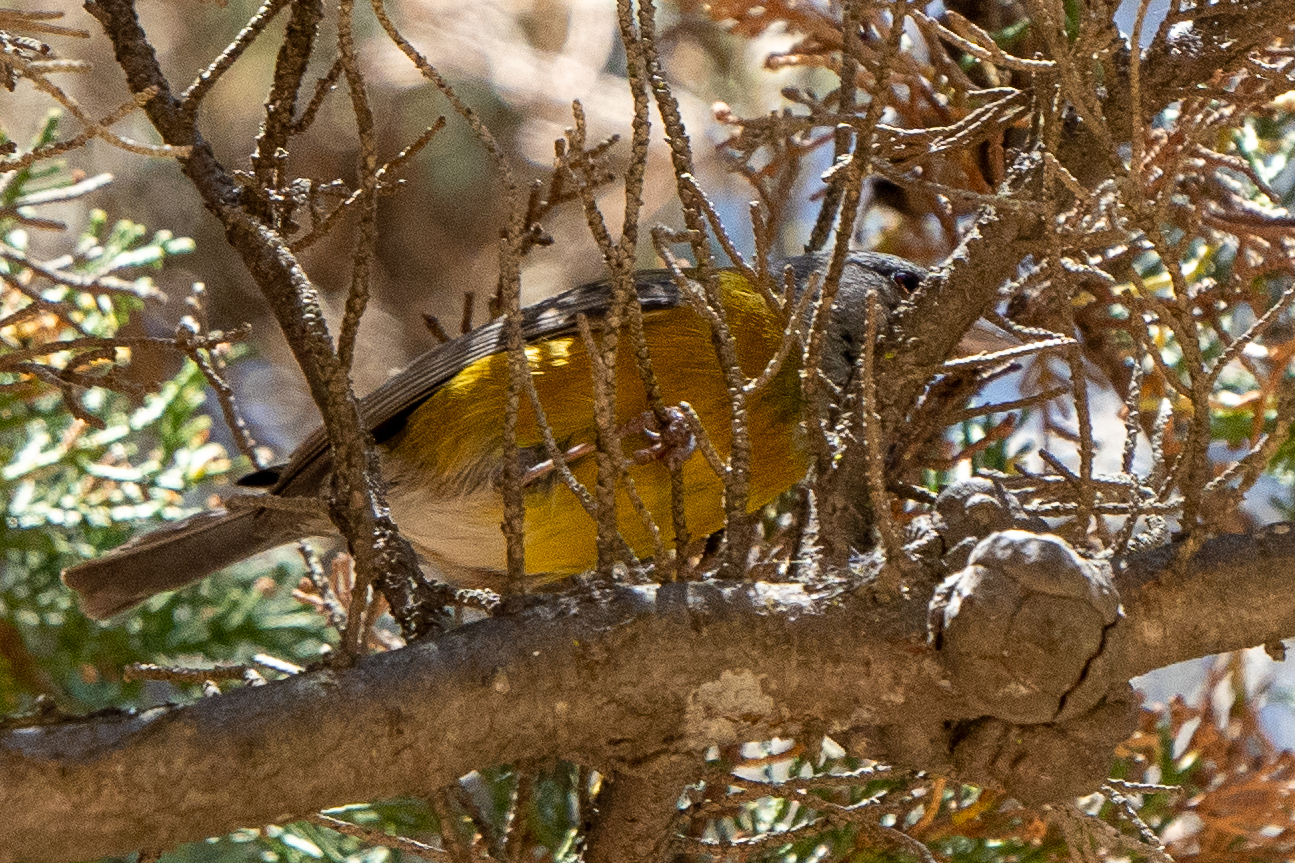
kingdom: Animalia
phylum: Chordata
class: Aves
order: Passeriformes
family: Thraupidae
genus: Phrygilus
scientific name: Phrygilus gayi
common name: Grey-hooded sierra finch
